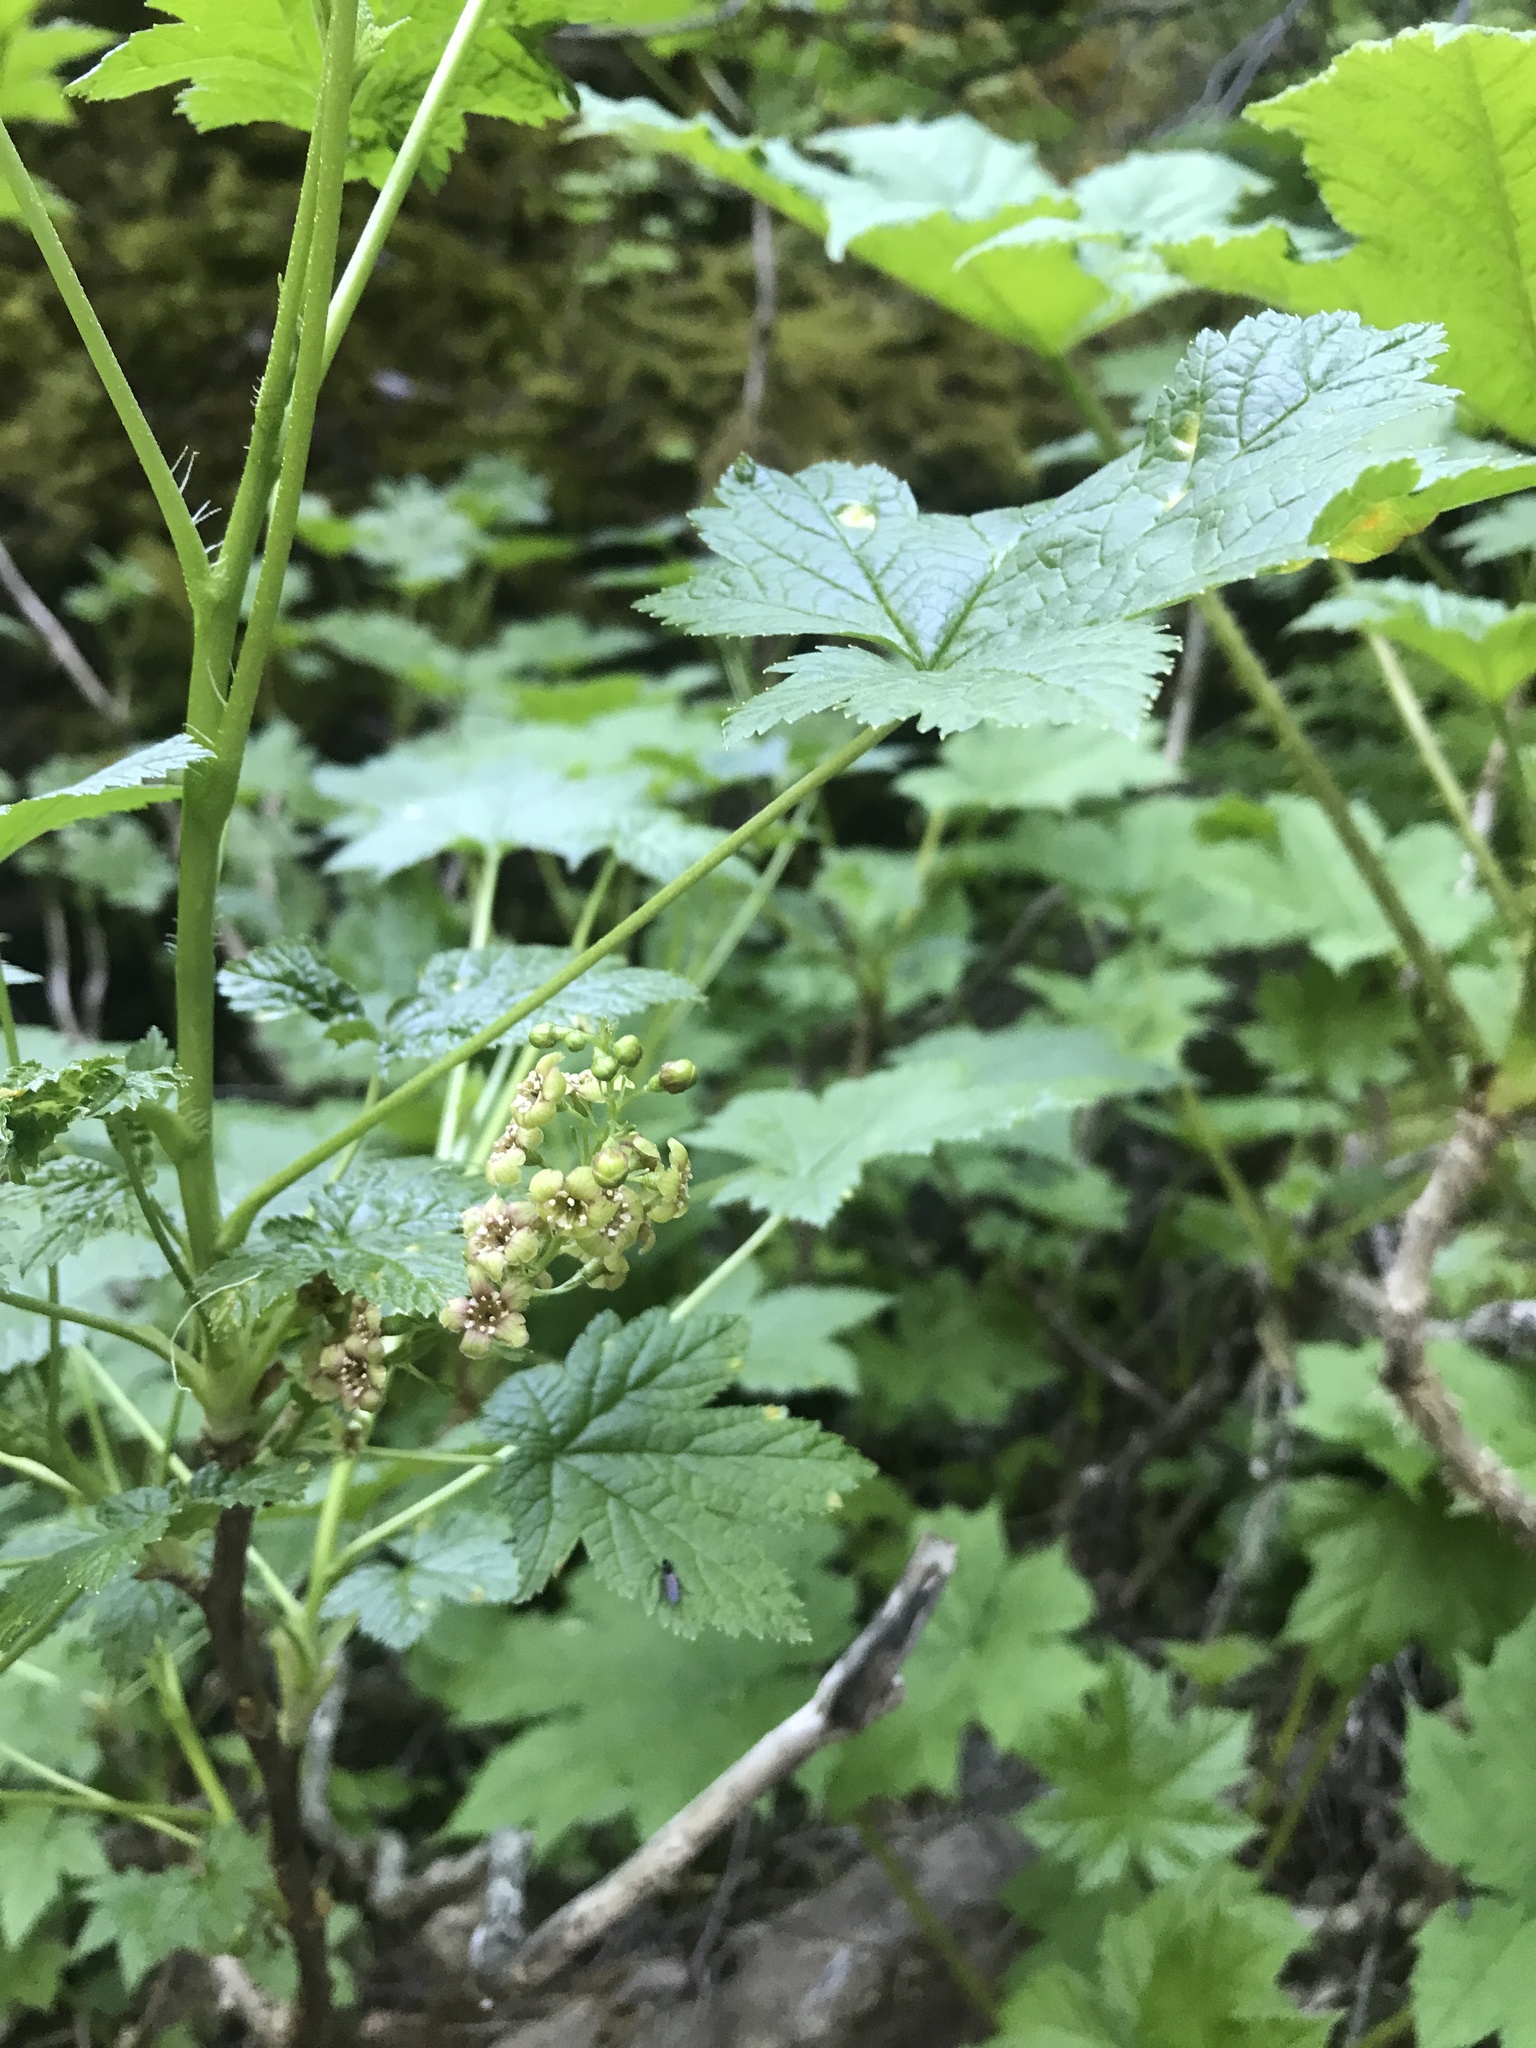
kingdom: Plantae
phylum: Tracheophyta
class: Magnoliopsida
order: Saxifragales
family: Grossulariaceae
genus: Ribes
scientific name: Ribes lacustre
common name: Black gooseberry
